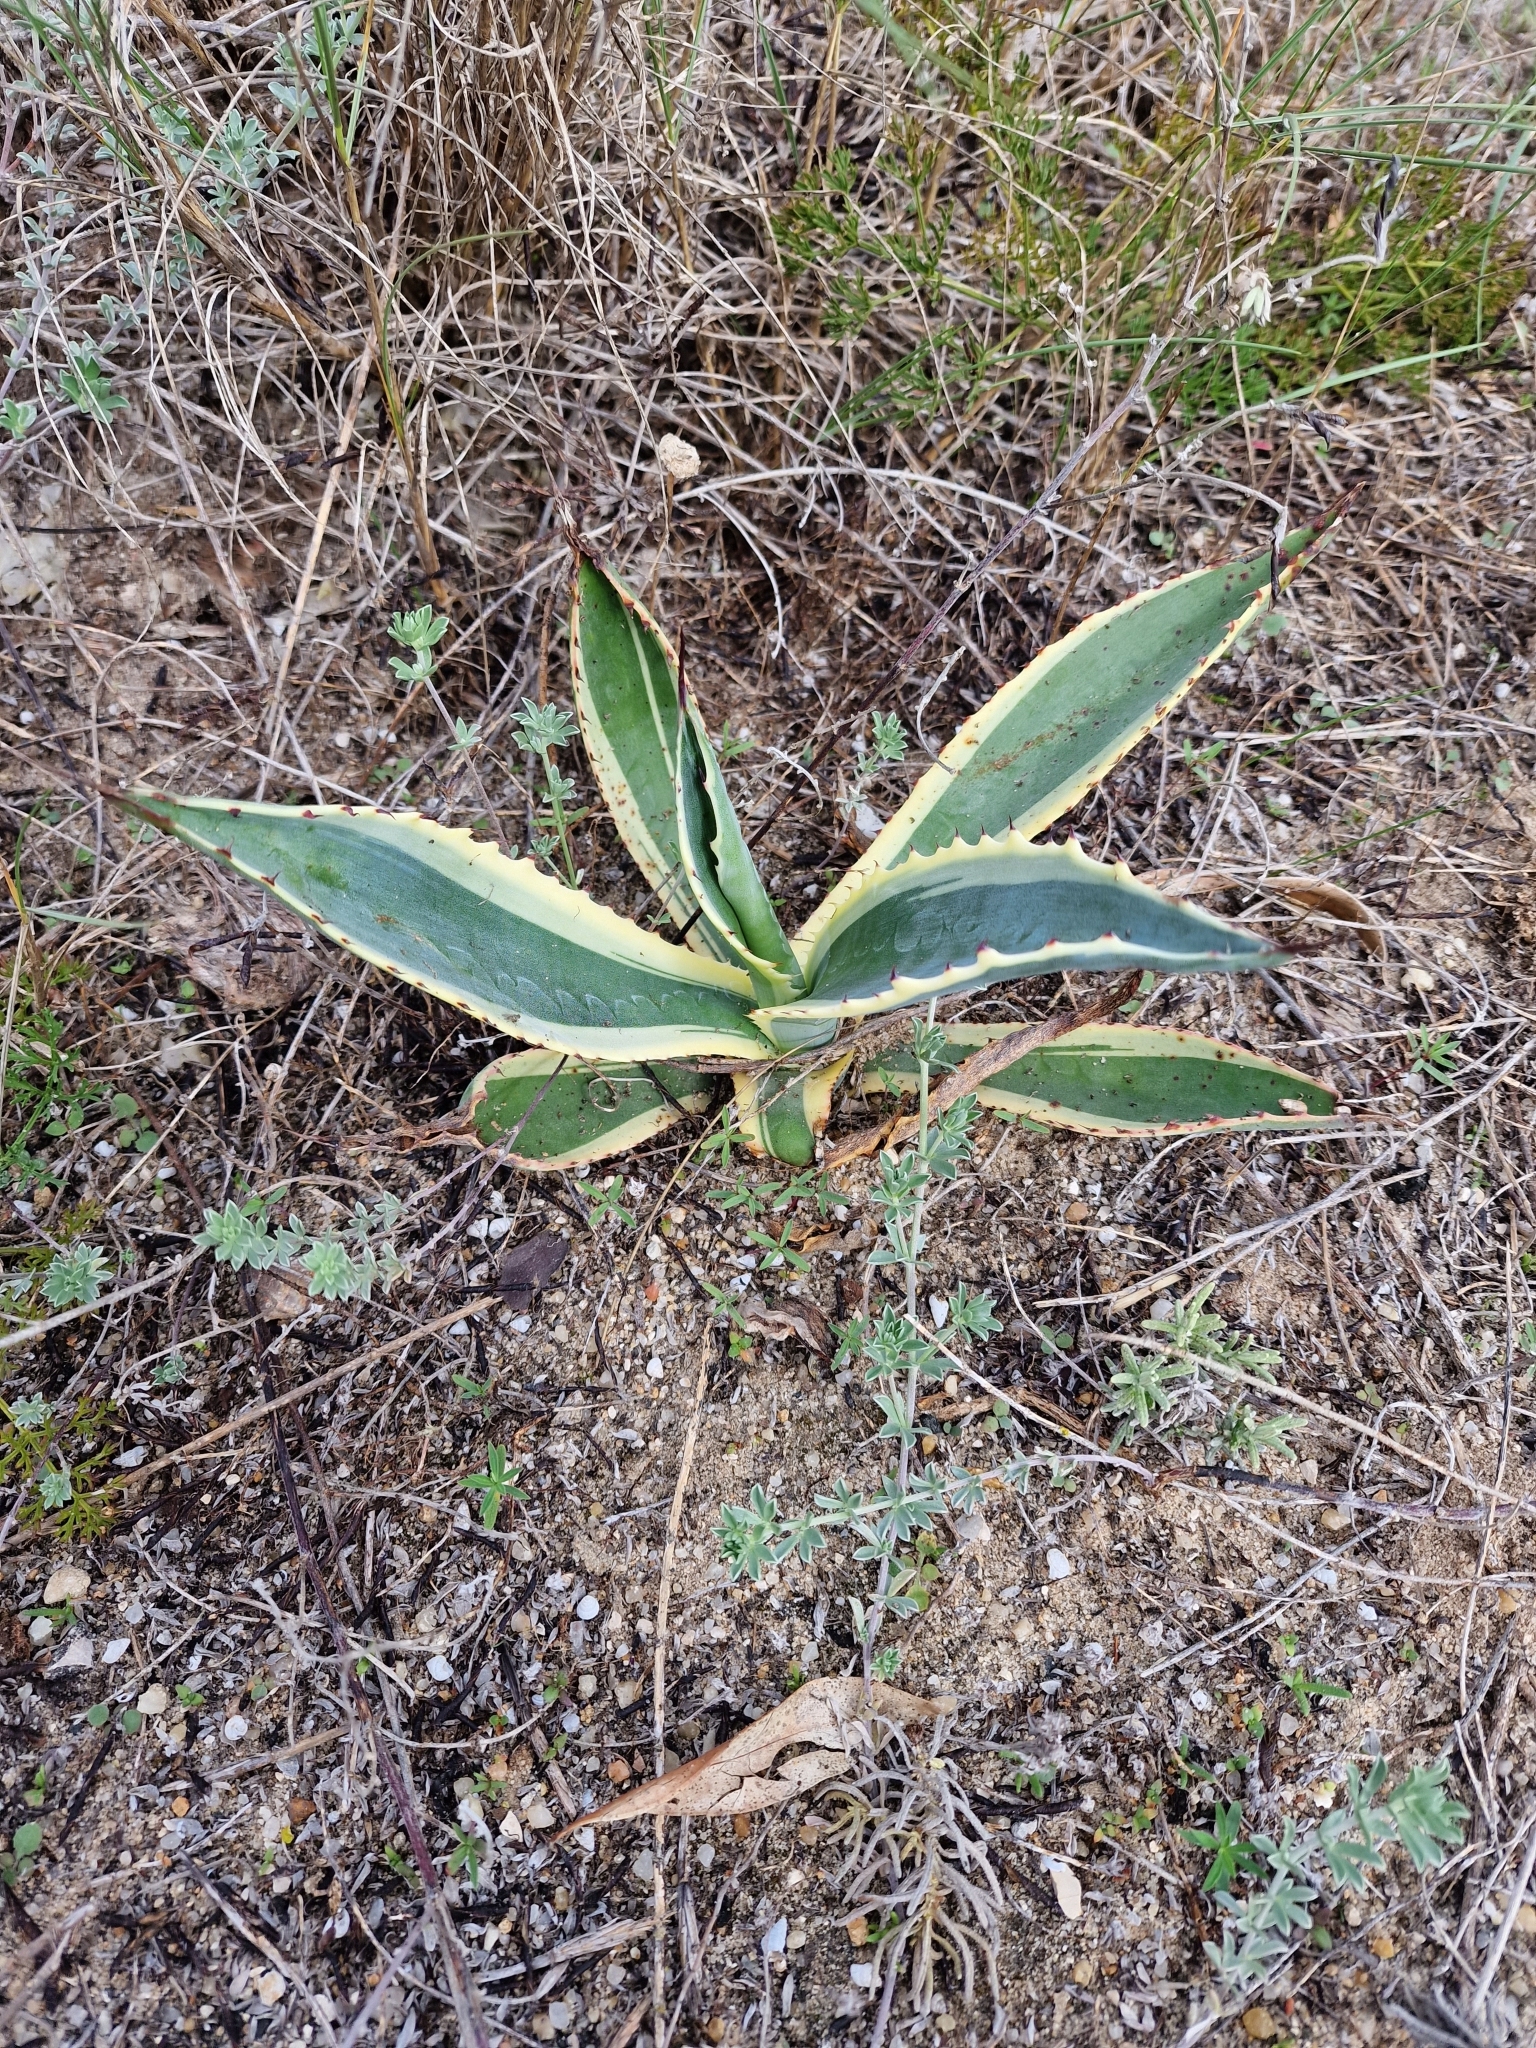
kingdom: Plantae
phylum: Tracheophyta
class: Liliopsida
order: Asparagales
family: Asparagaceae
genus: Agave
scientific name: Agave americana
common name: Centuryplant
